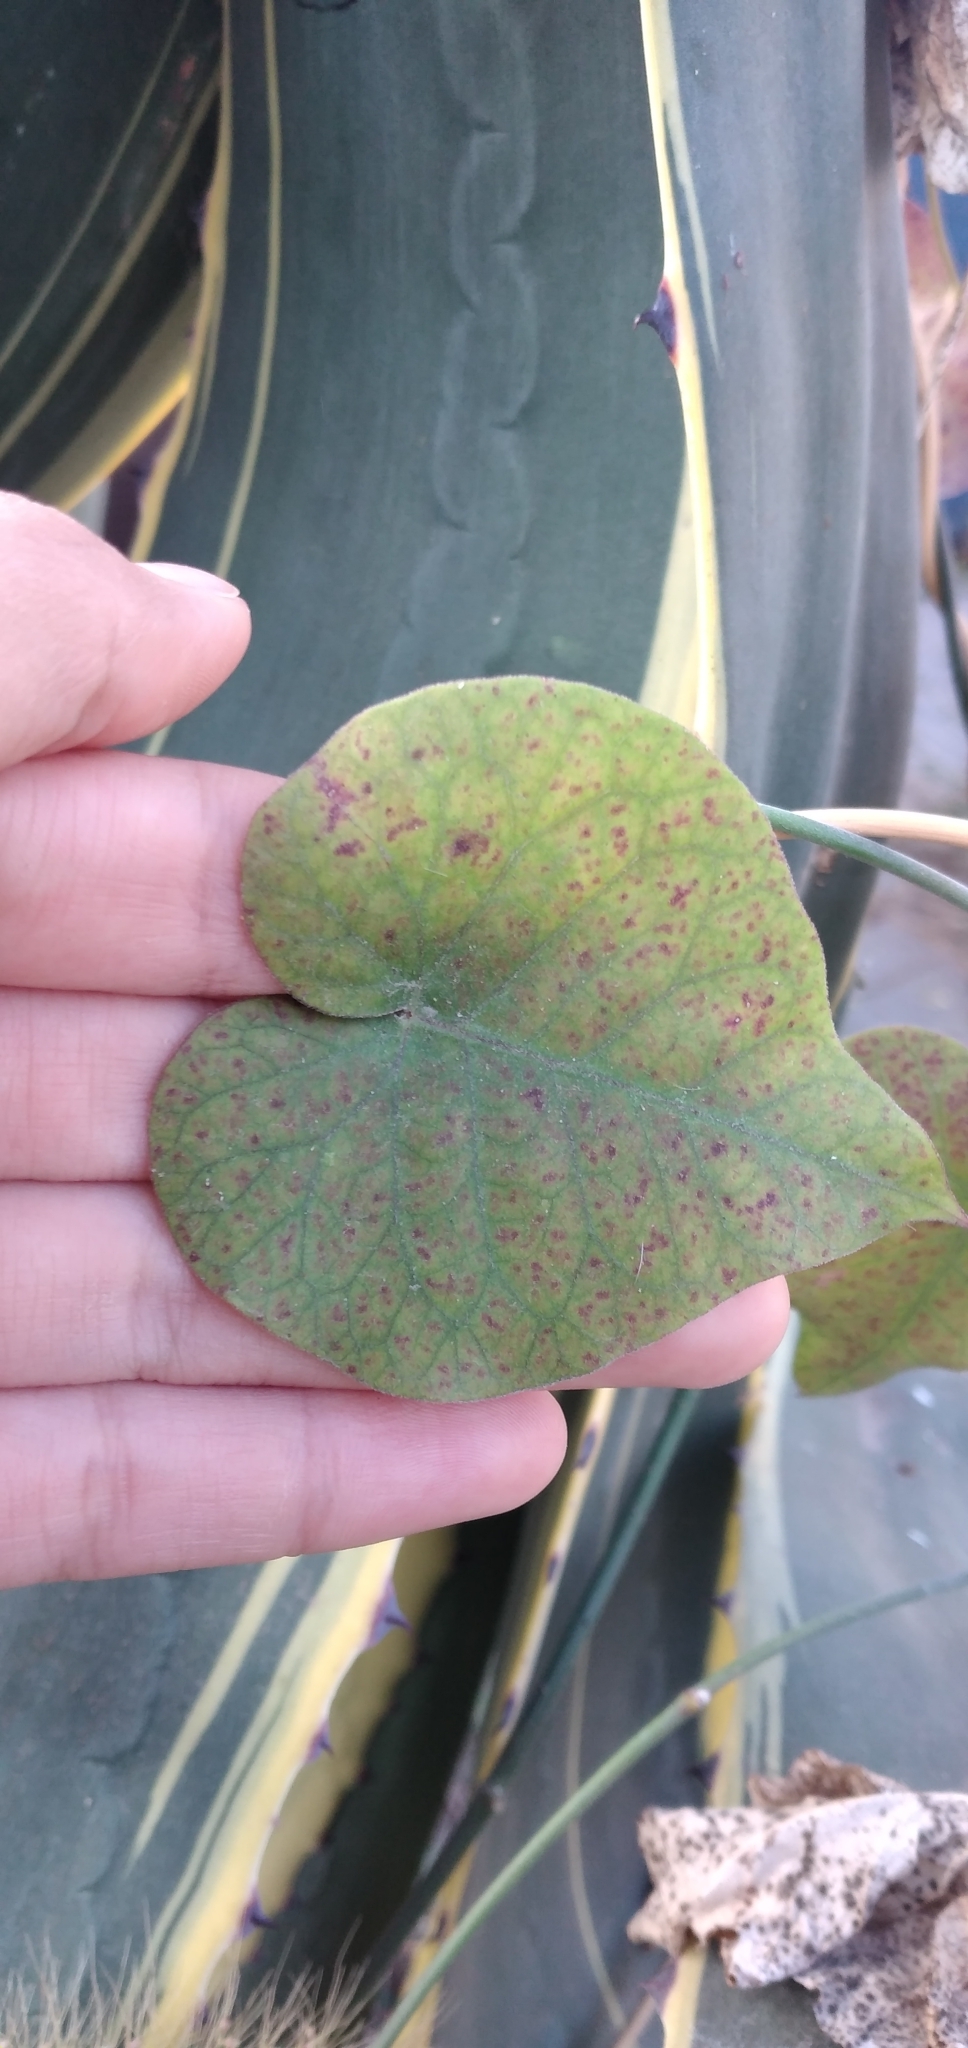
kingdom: Plantae
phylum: Tracheophyta
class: Magnoliopsida
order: Gentianales
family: Apocynaceae
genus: Philibertia
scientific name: Philibertia gilliesii
